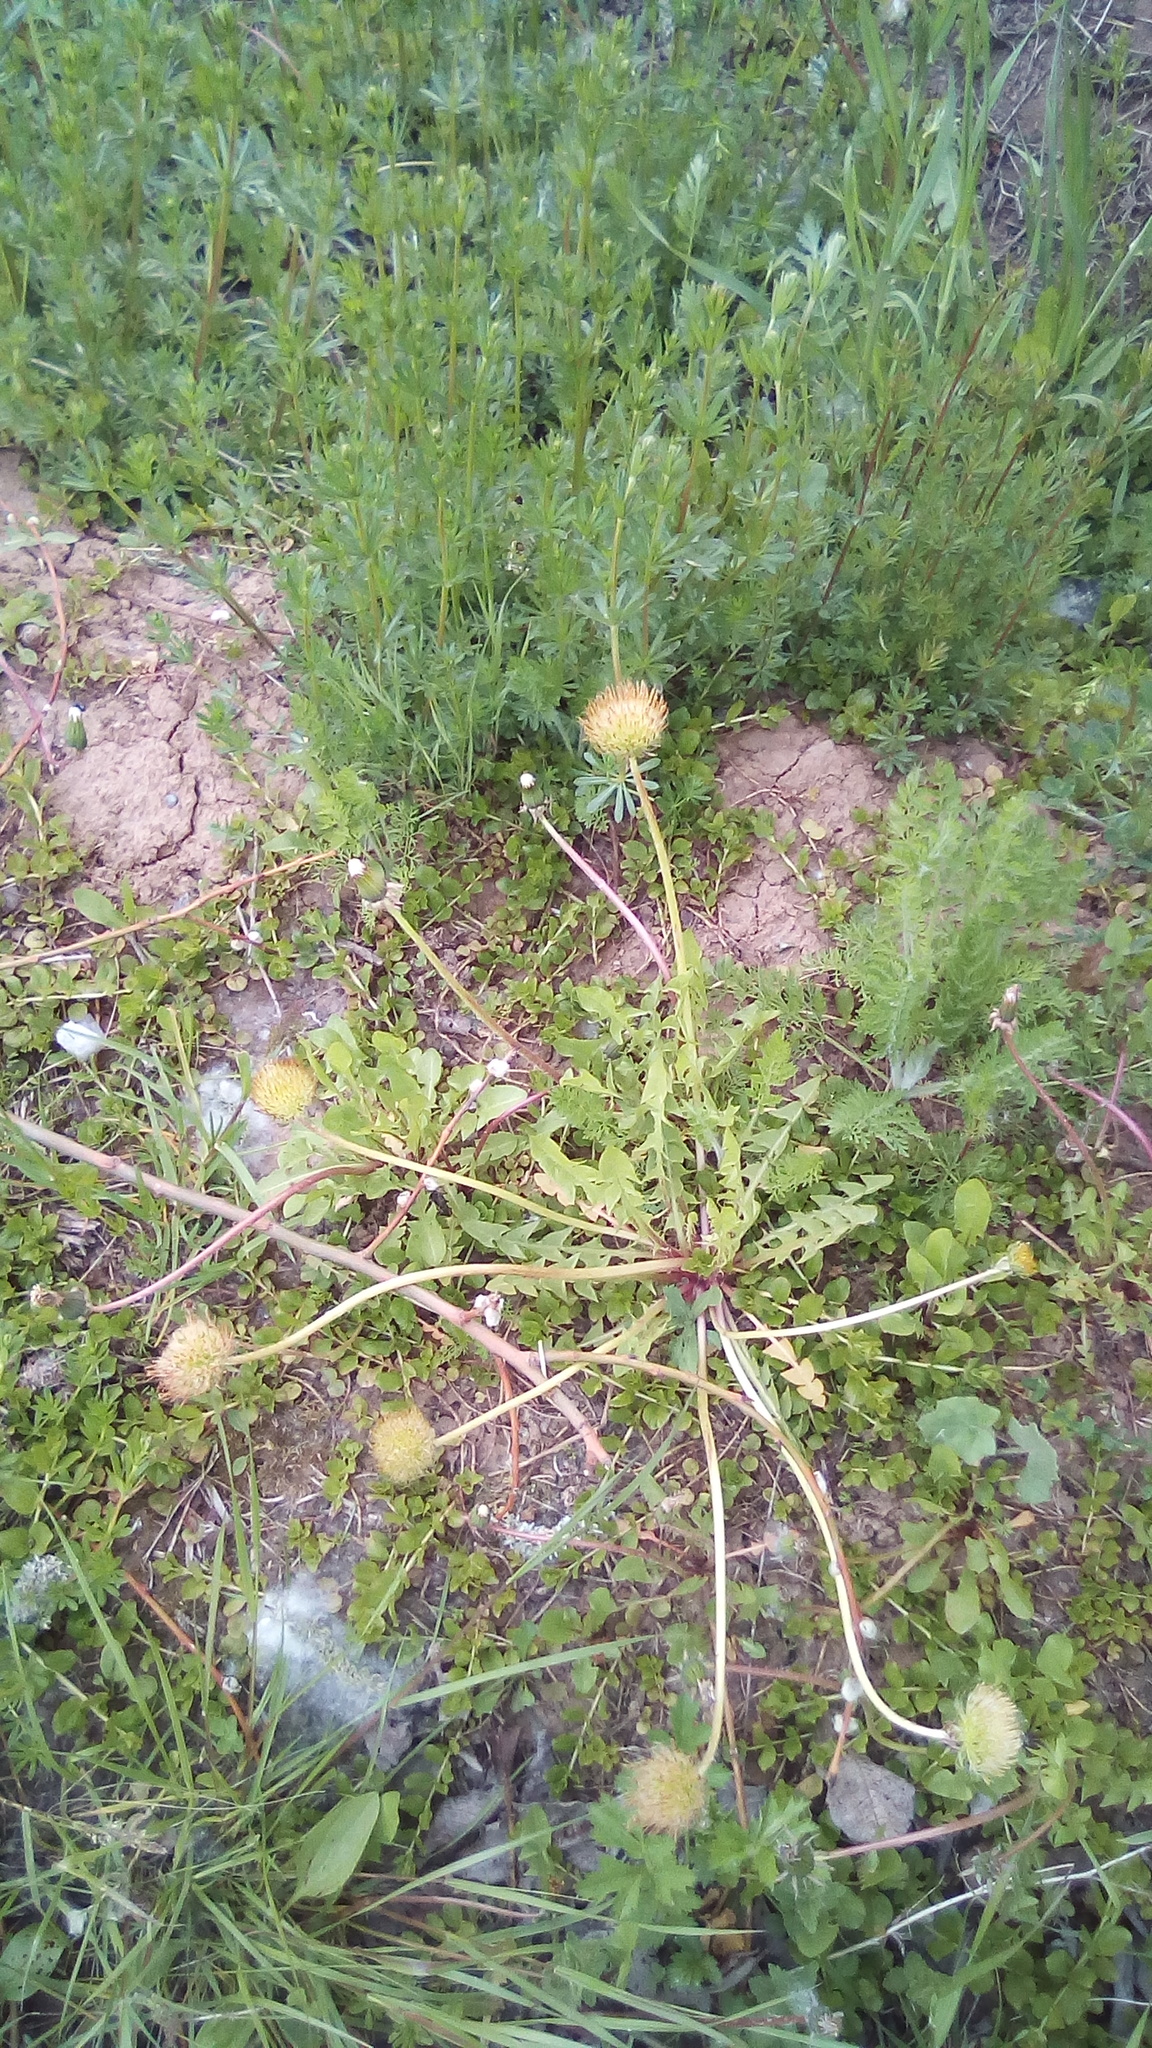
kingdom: Plantae
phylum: Tracheophyta
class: Magnoliopsida
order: Asterales
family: Asteraceae
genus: Taraxacum
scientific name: Taraxacum officinale
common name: Common dandelion
